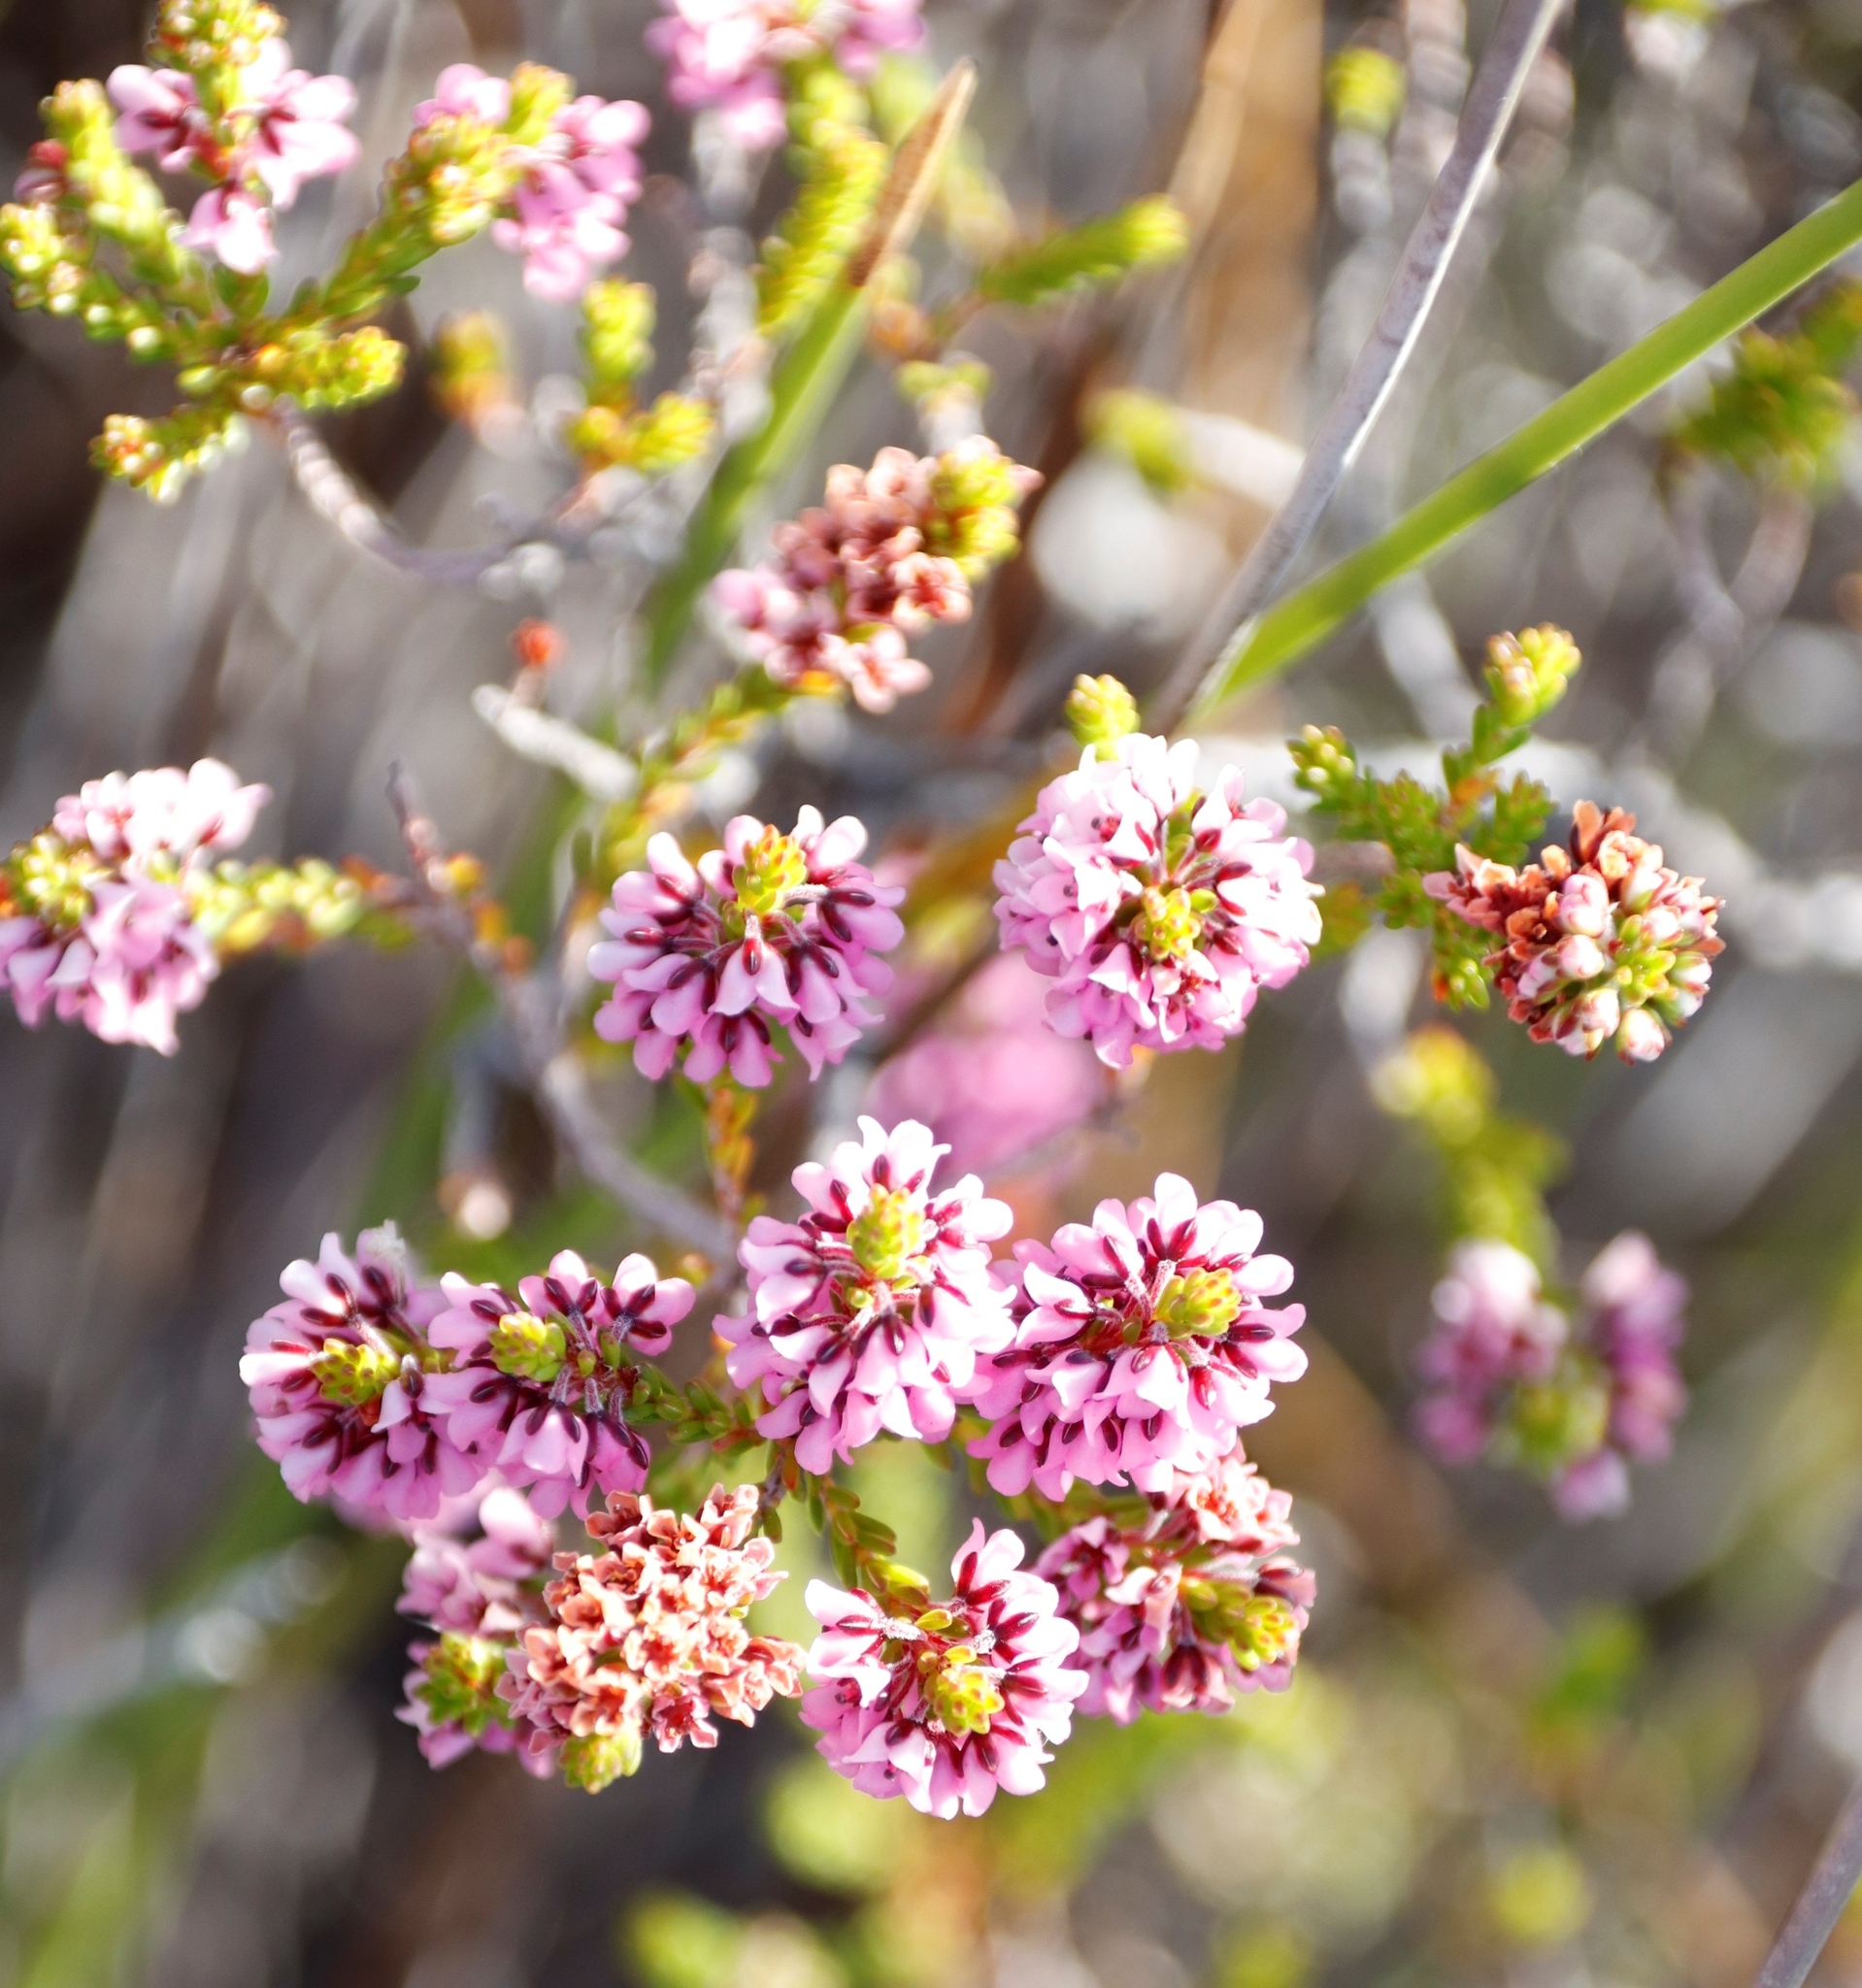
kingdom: Plantae
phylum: Tracheophyta
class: Magnoliopsida
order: Ericales
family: Ericaceae
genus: Erica
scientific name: Erica pulchella
